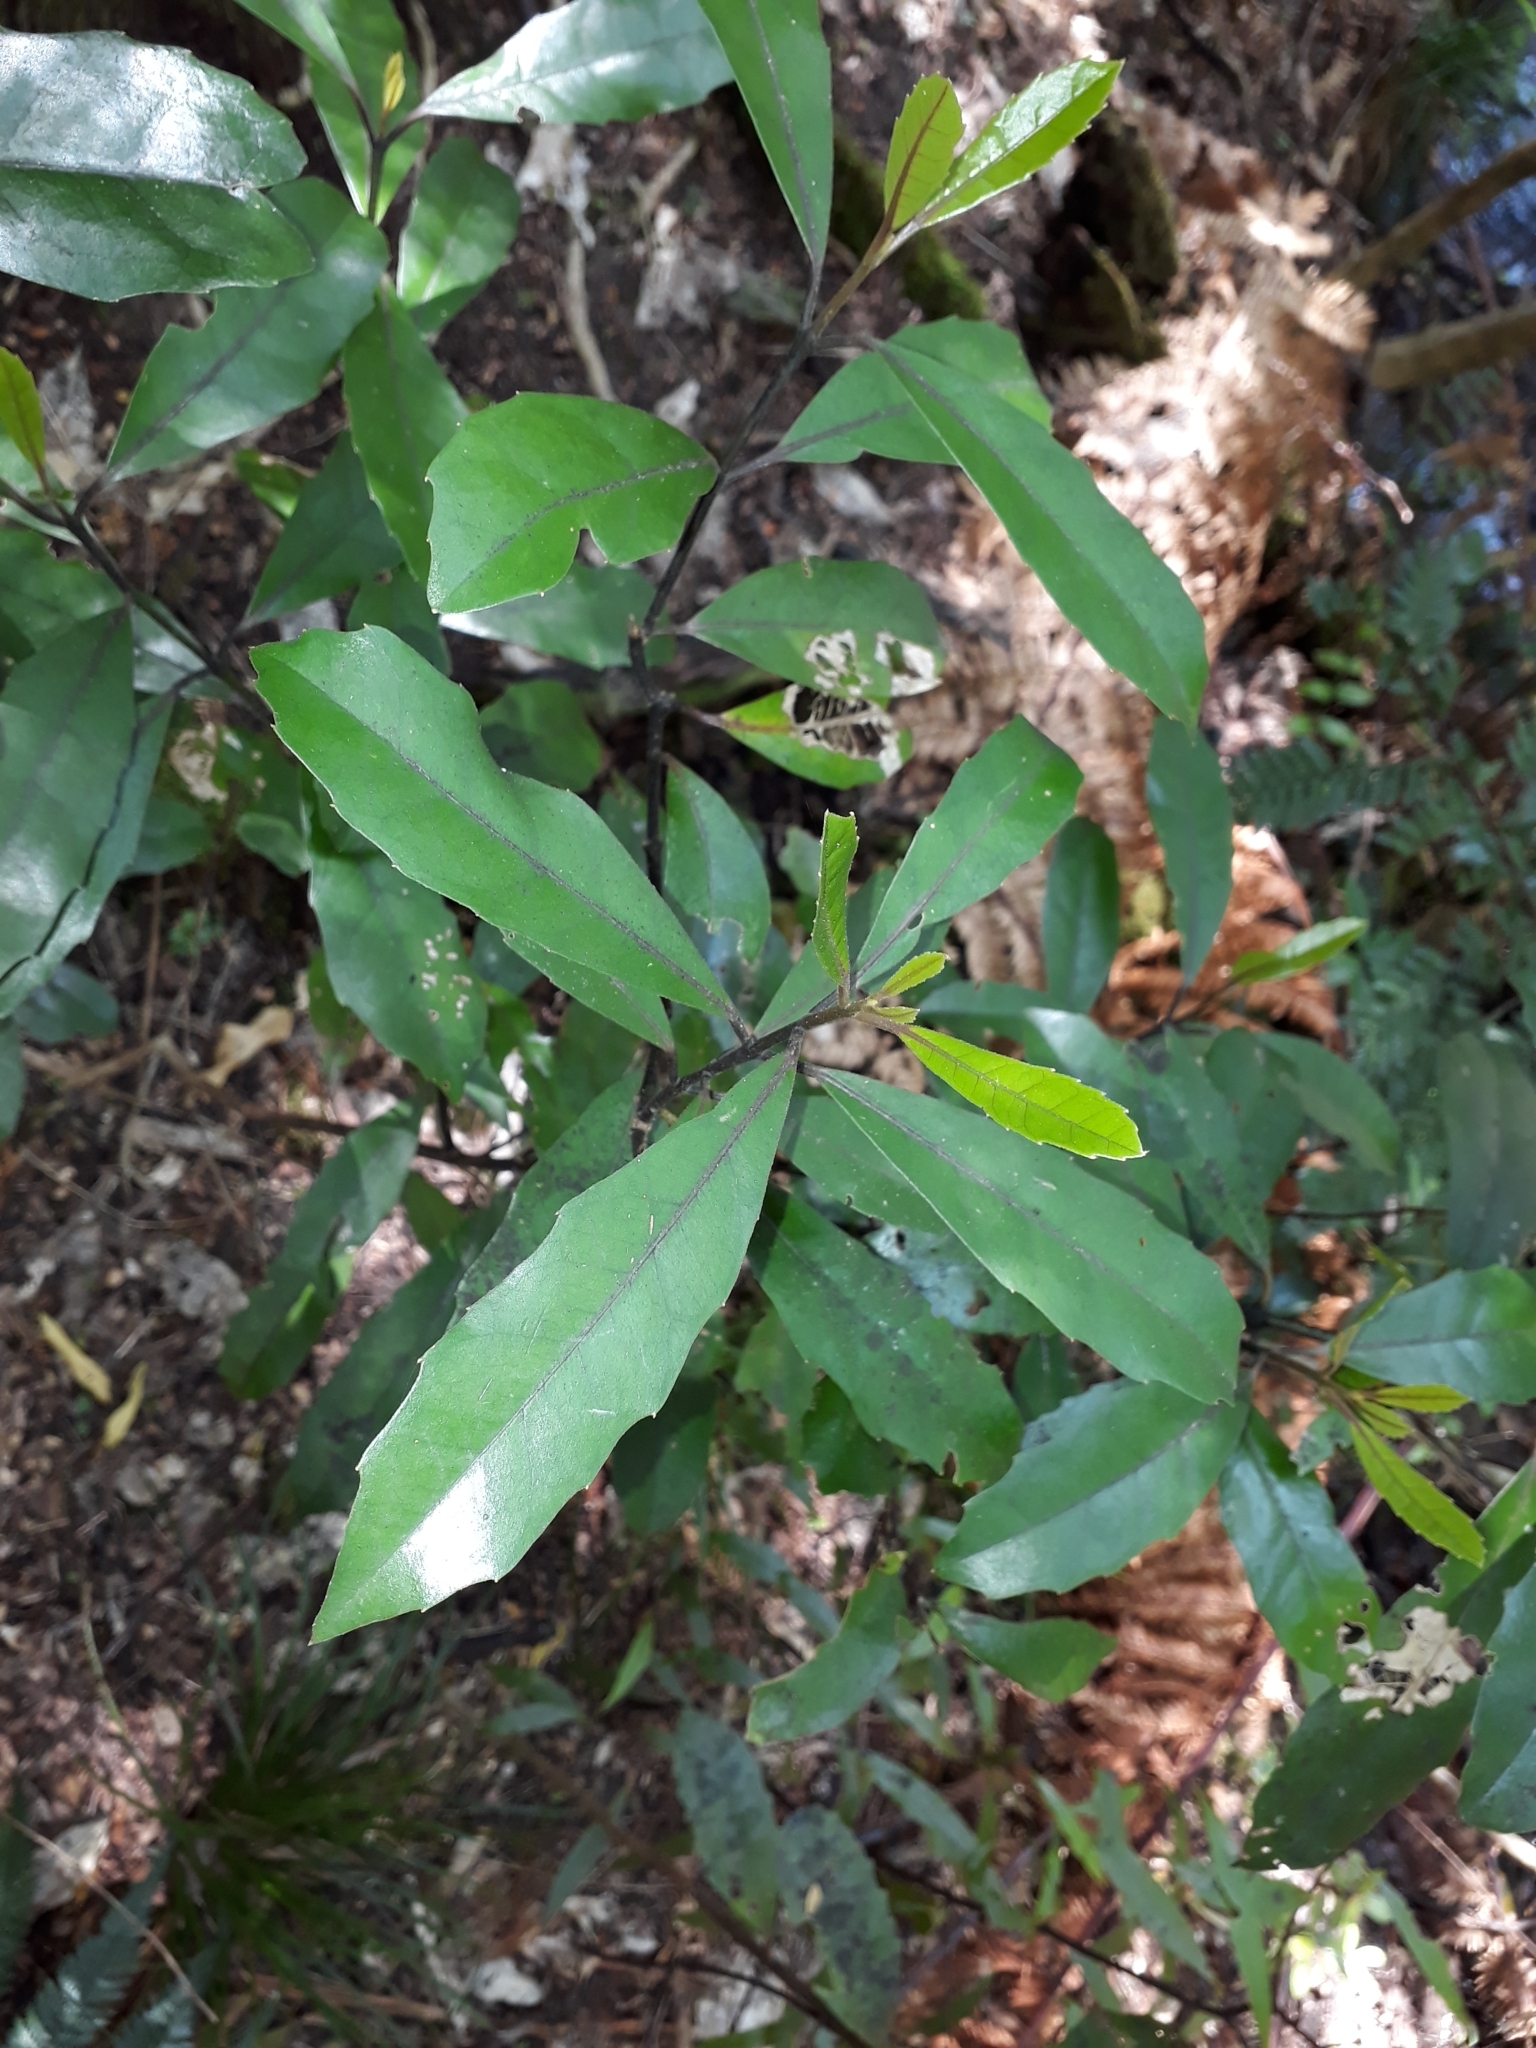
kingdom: Plantae
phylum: Tracheophyta
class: Magnoliopsida
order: Laurales
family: Monimiaceae
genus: Hedycarya
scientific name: Hedycarya arborea
